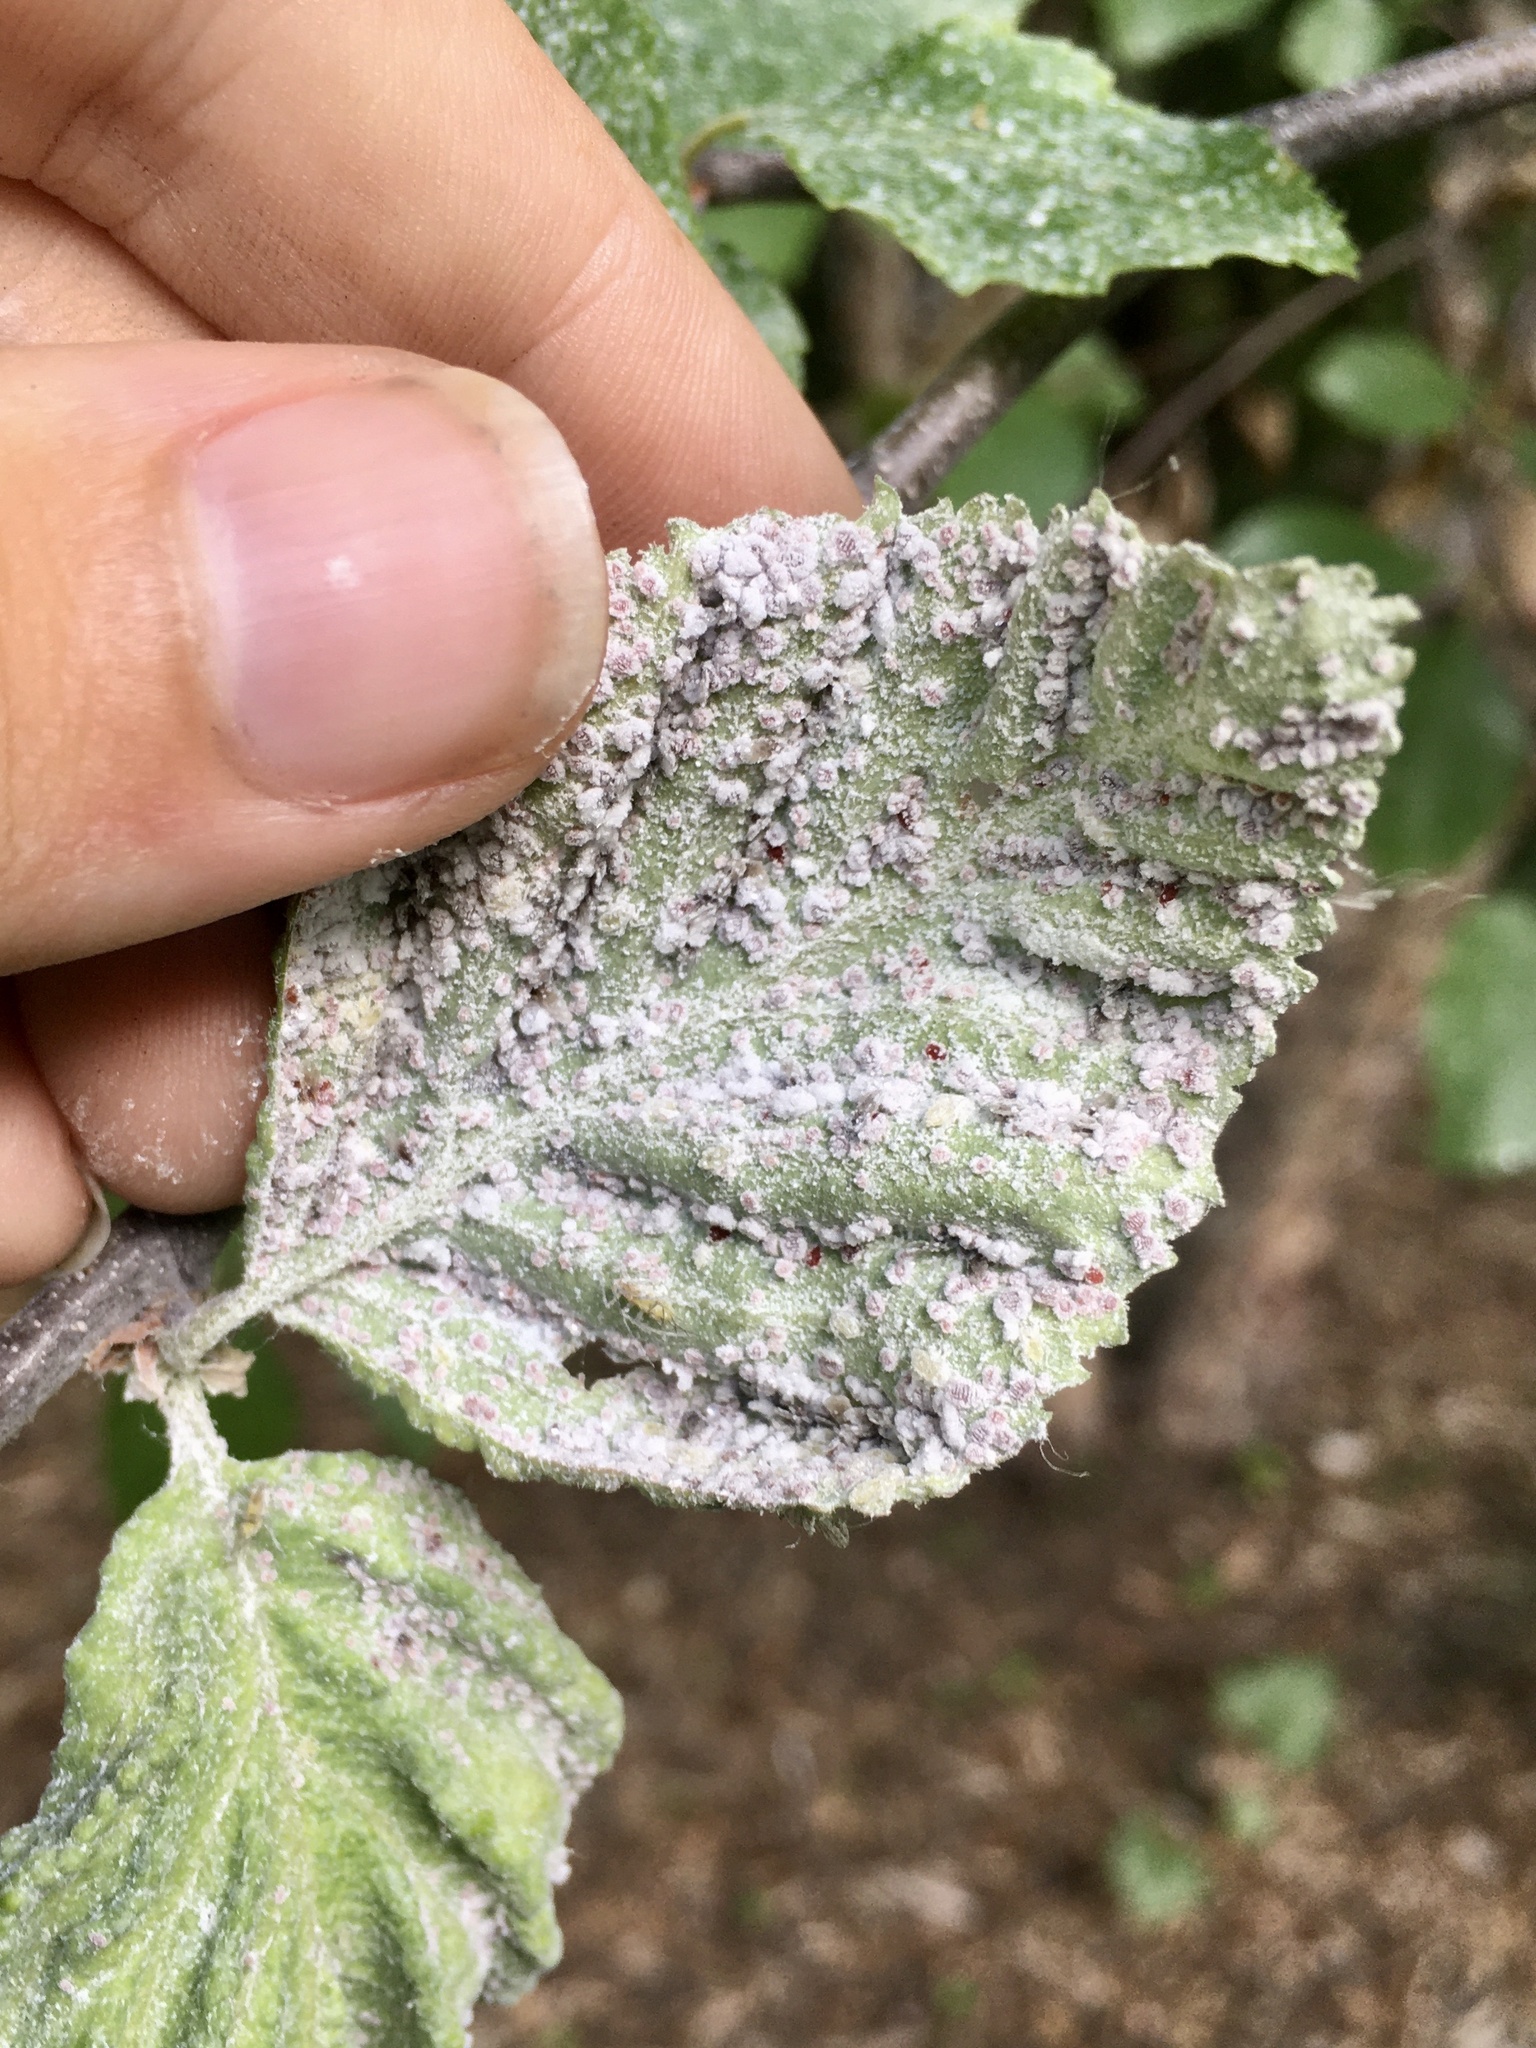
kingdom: Animalia
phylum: Arthropoda
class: Insecta
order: Hemiptera
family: Aphididae
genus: Hamamelistes
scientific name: Hamamelistes spinosus
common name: Witch hazel gall aphid
